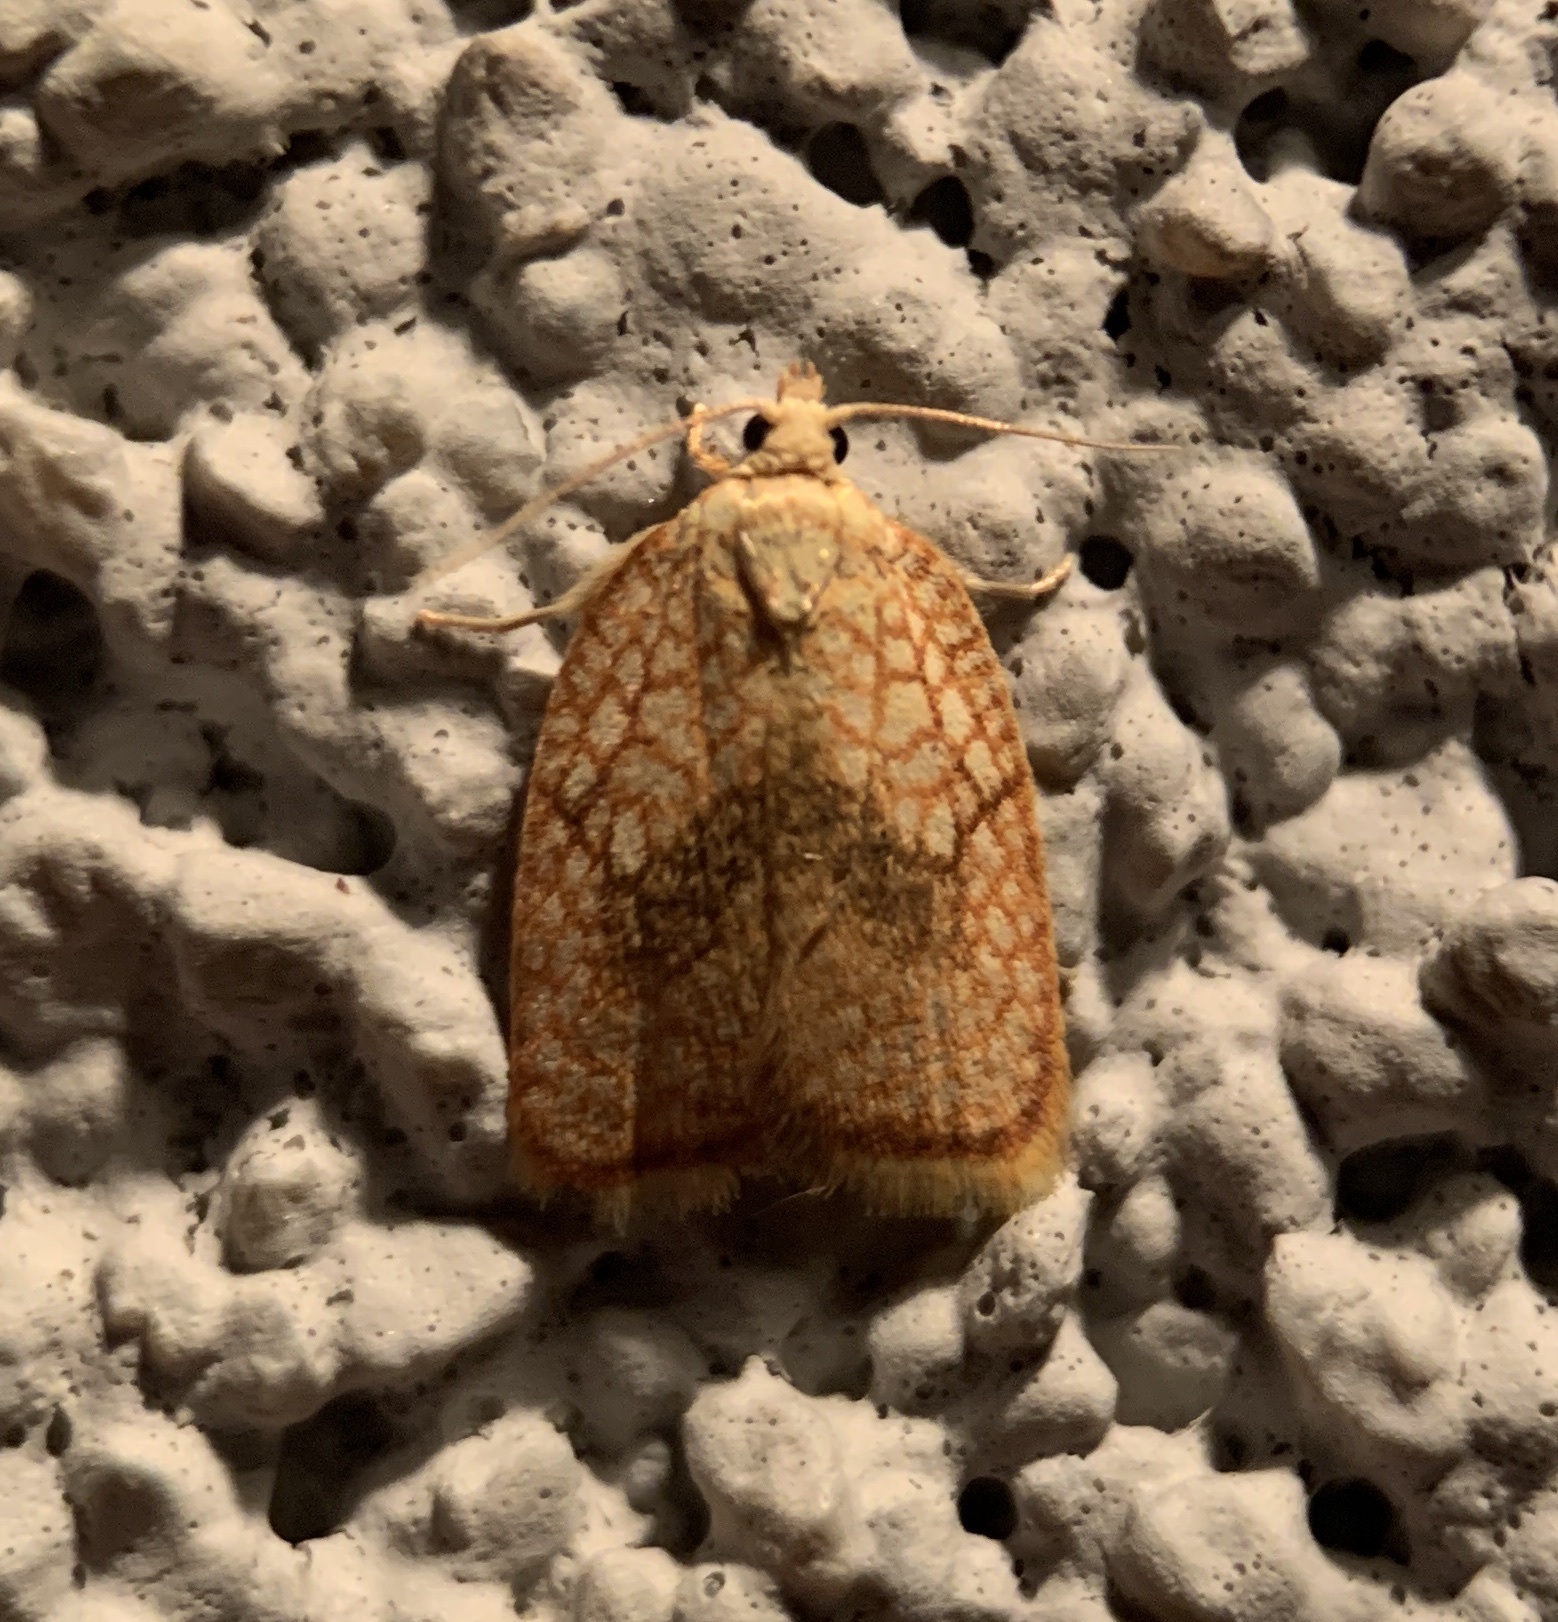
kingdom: Animalia
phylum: Arthropoda
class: Insecta
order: Lepidoptera
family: Tortricidae
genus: Acleris
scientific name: Acleris forsskaleana
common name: Maple button
